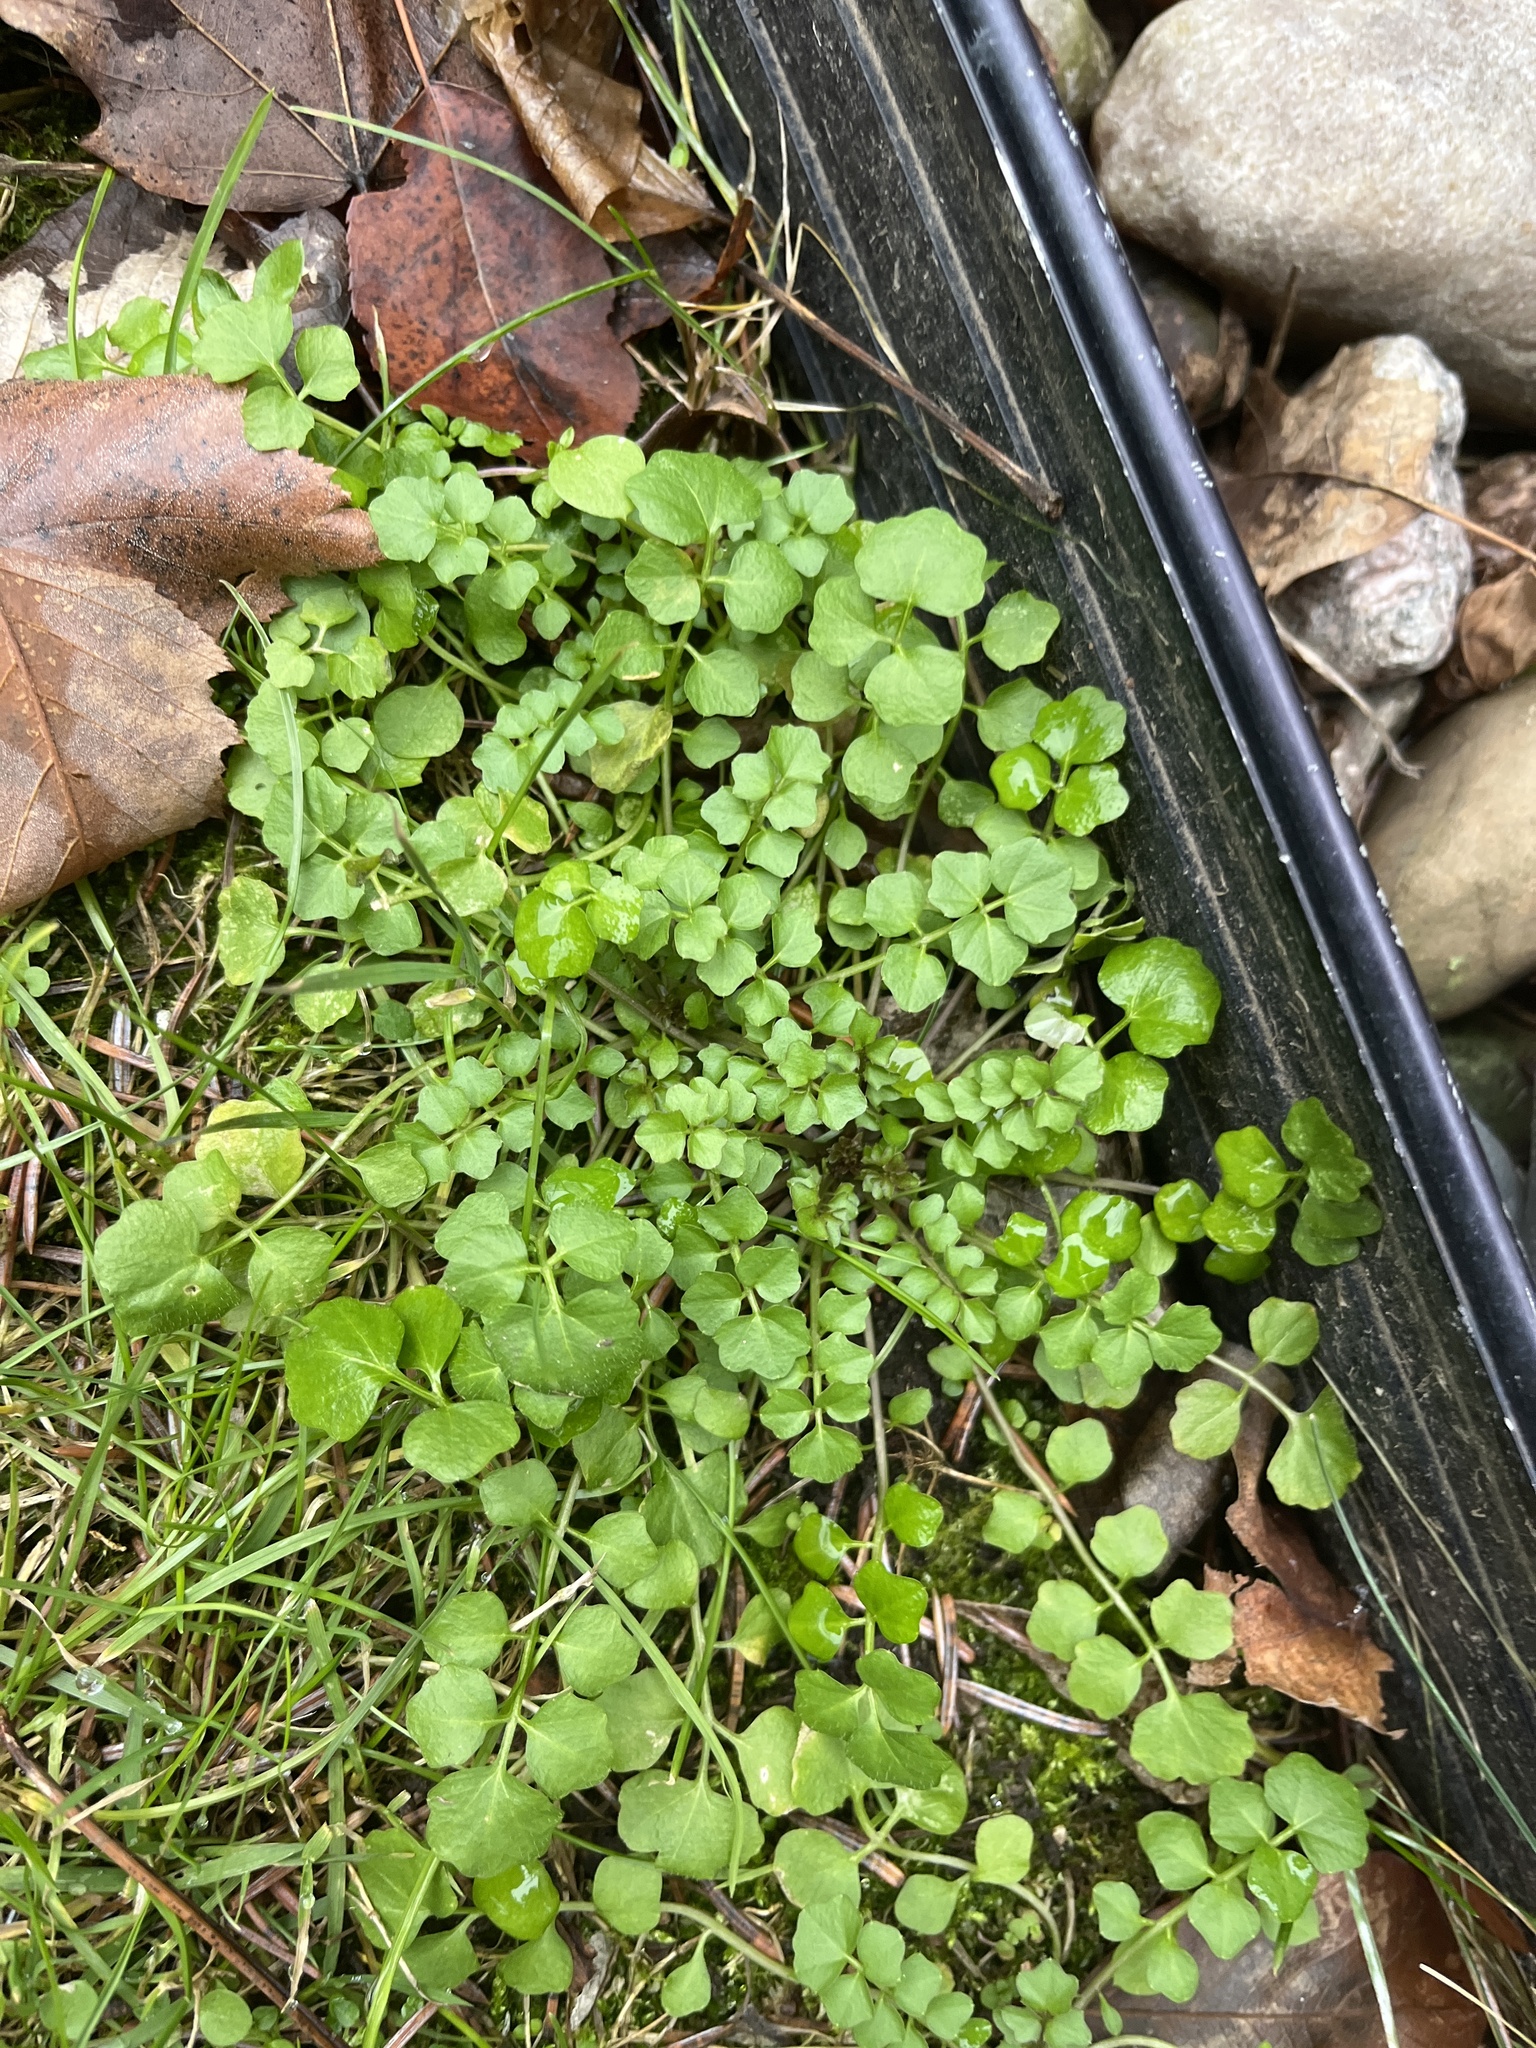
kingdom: Plantae
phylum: Tracheophyta
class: Magnoliopsida
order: Brassicales
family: Brassicaceae
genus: Cardamine
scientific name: Cardamine hirsuta
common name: Hairy bittercress
